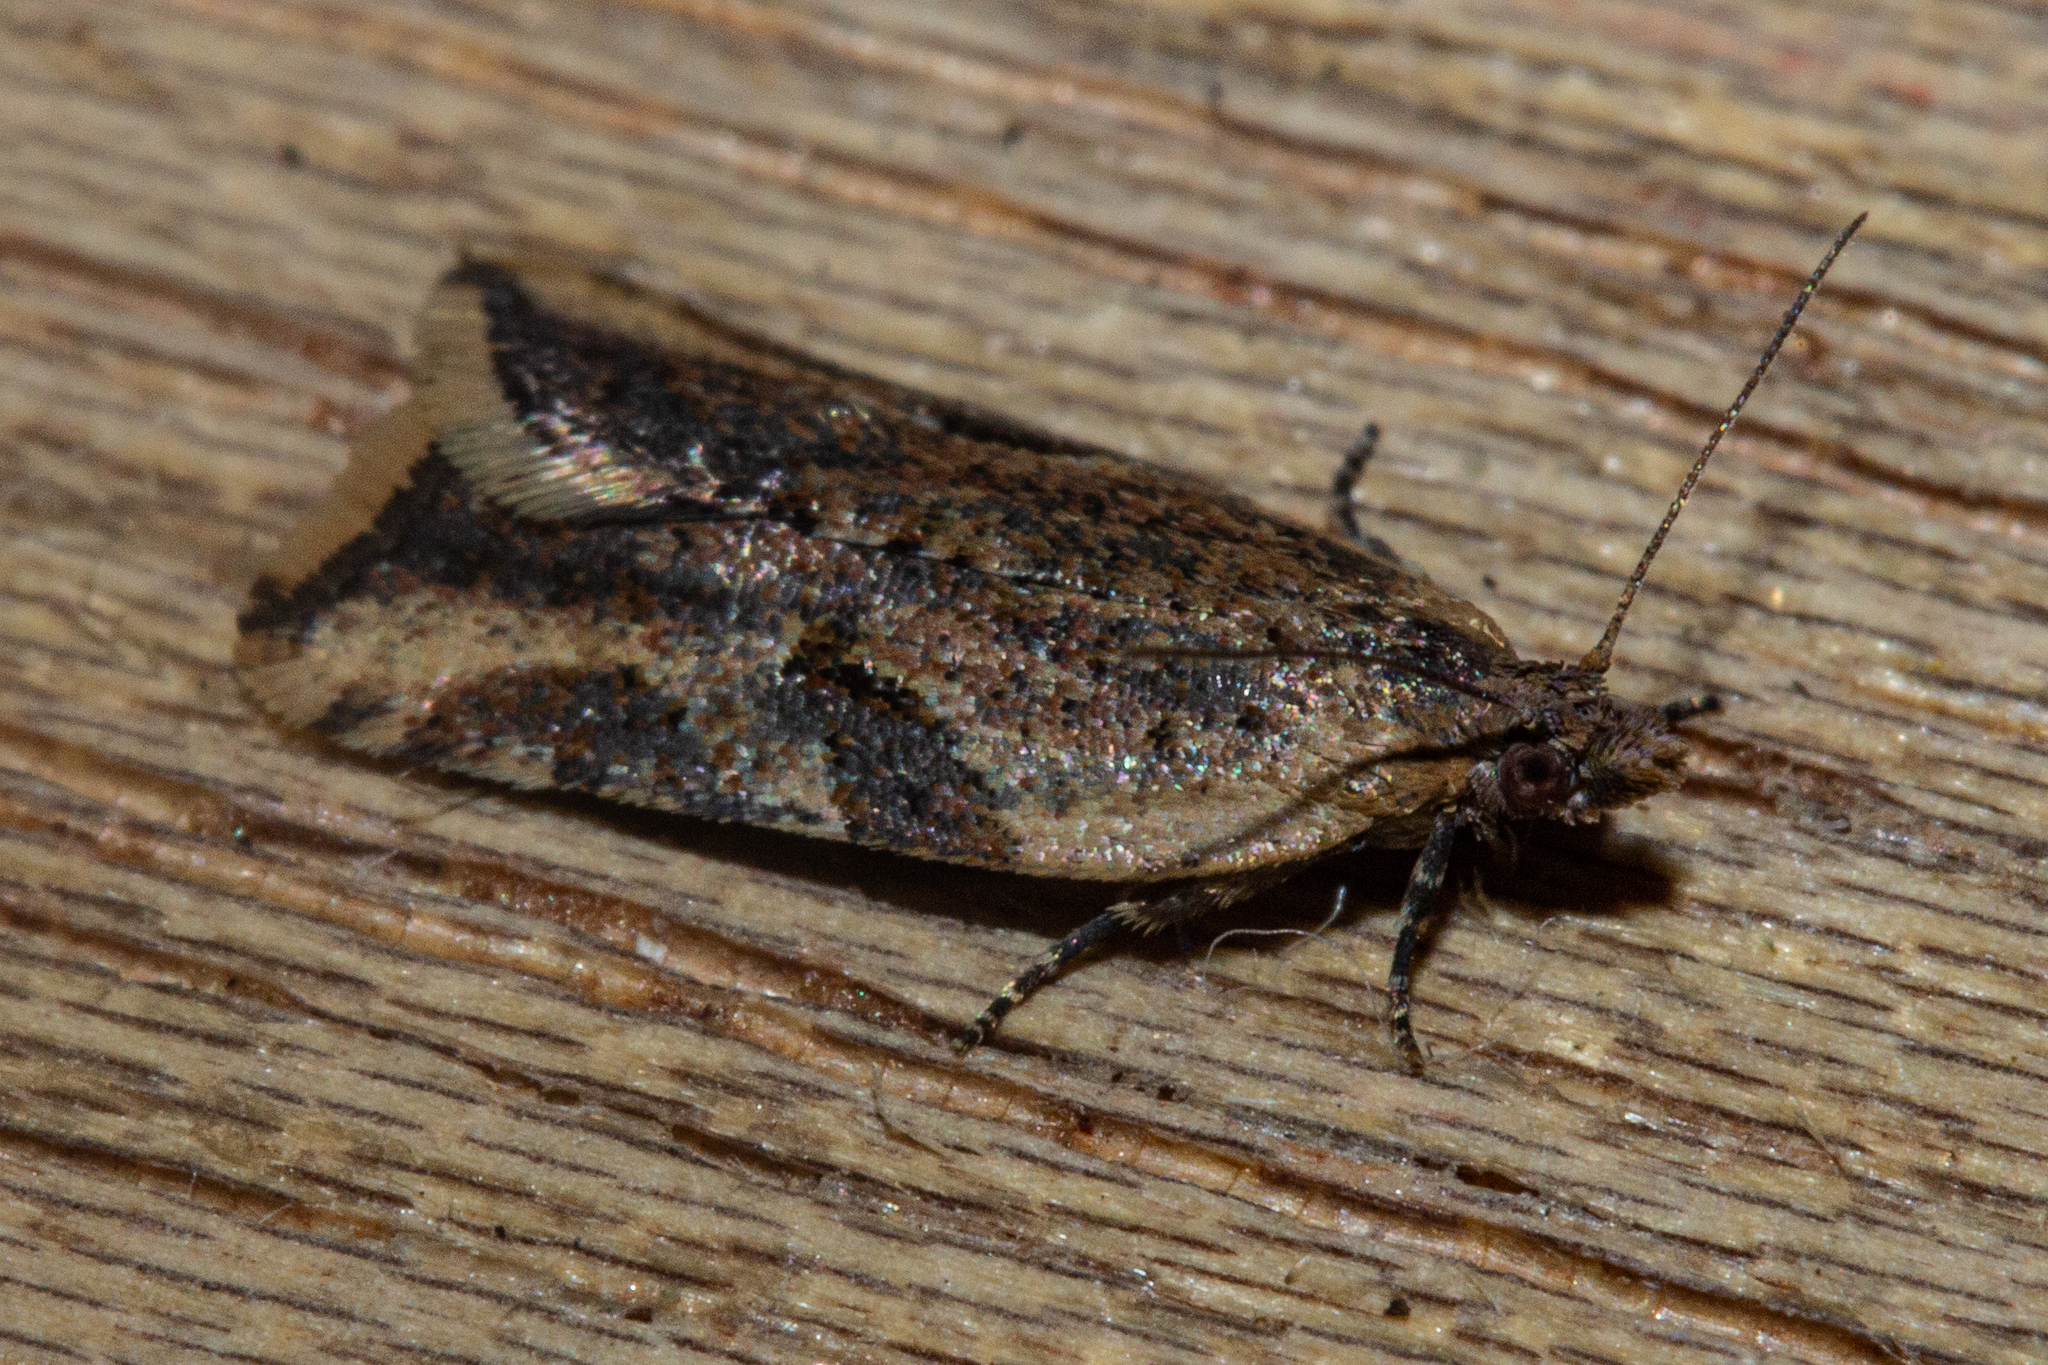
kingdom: Animalia
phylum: Arthropoda
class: Insecta
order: Lepidoptera
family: Tortricidae
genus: Capua
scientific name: Capua semiferana
